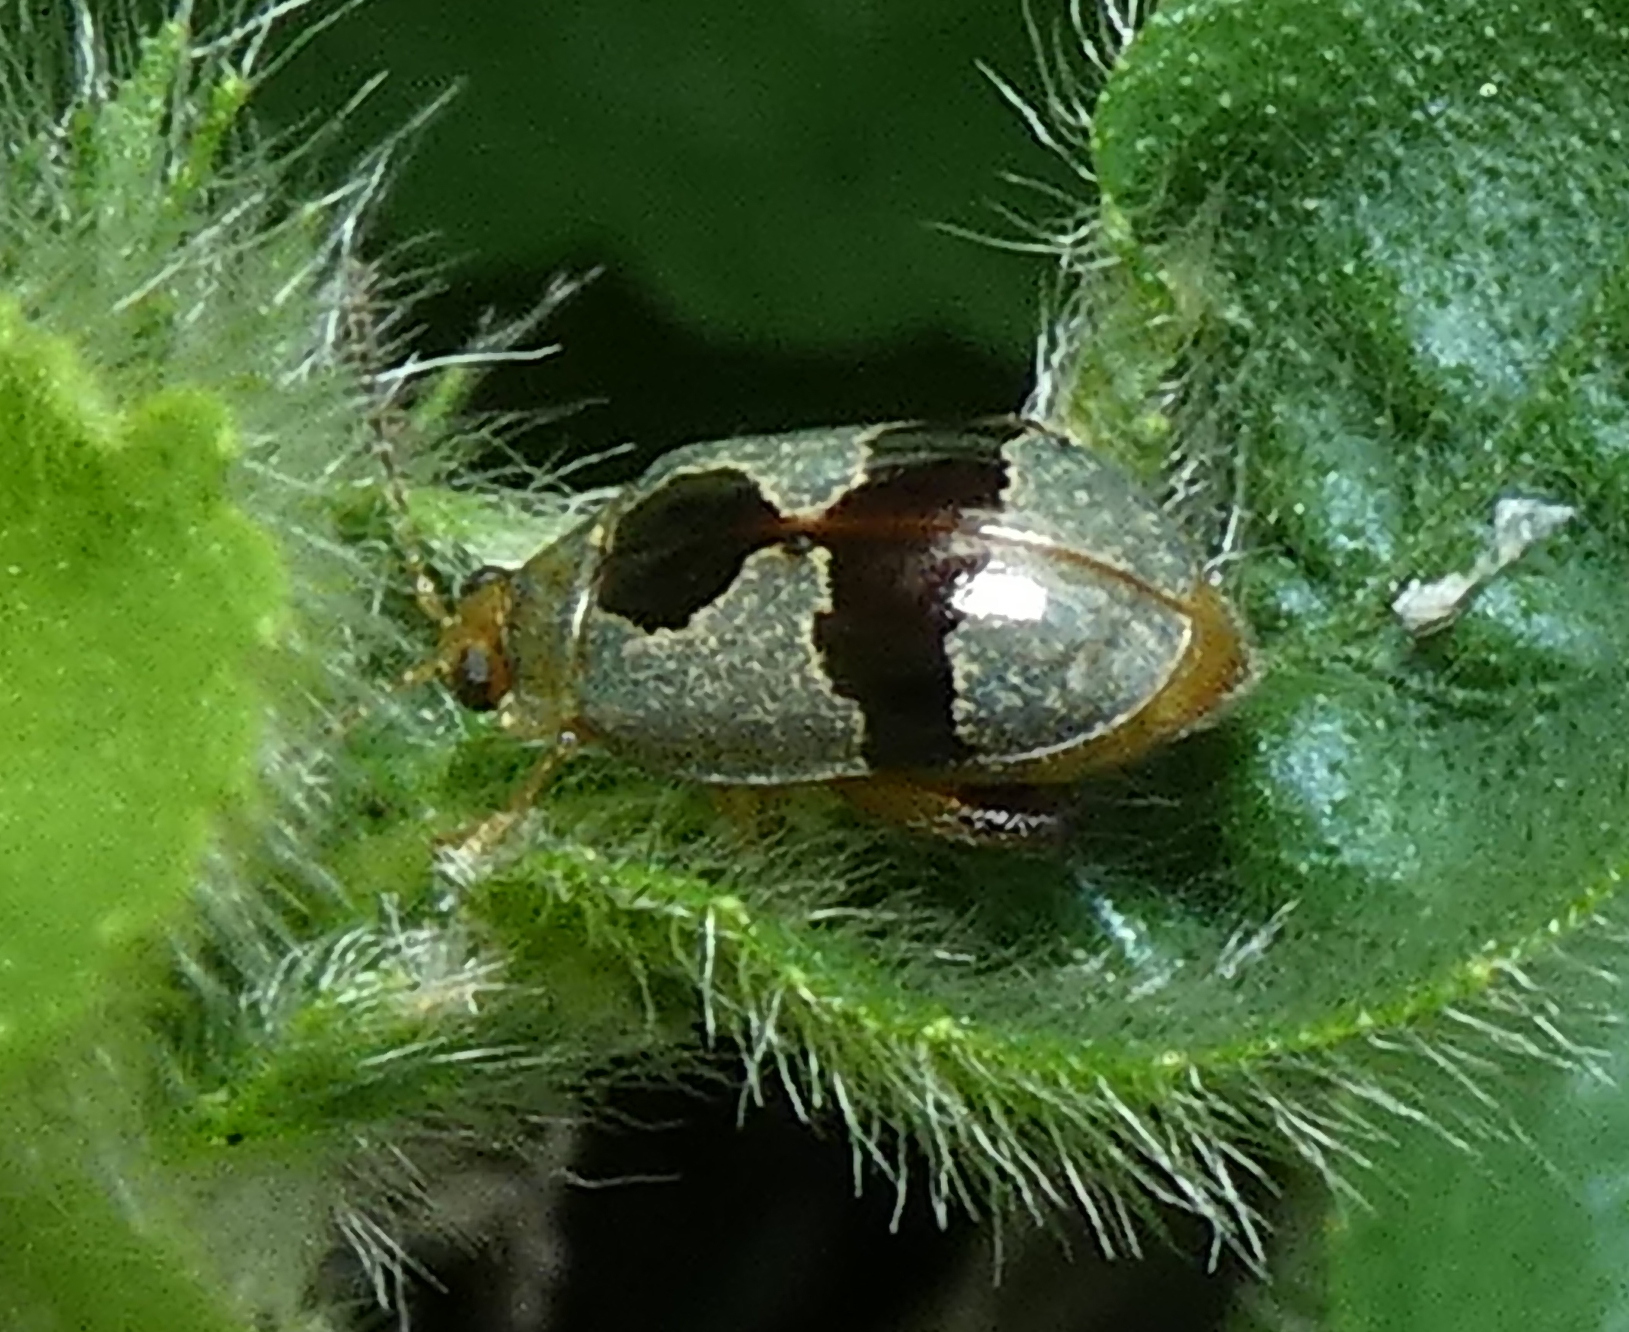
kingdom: Animalia
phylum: Arthropoda
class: Insecta
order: Coleoptera
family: Chrysomelidae
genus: Alagoasa
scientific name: Alagoasa
